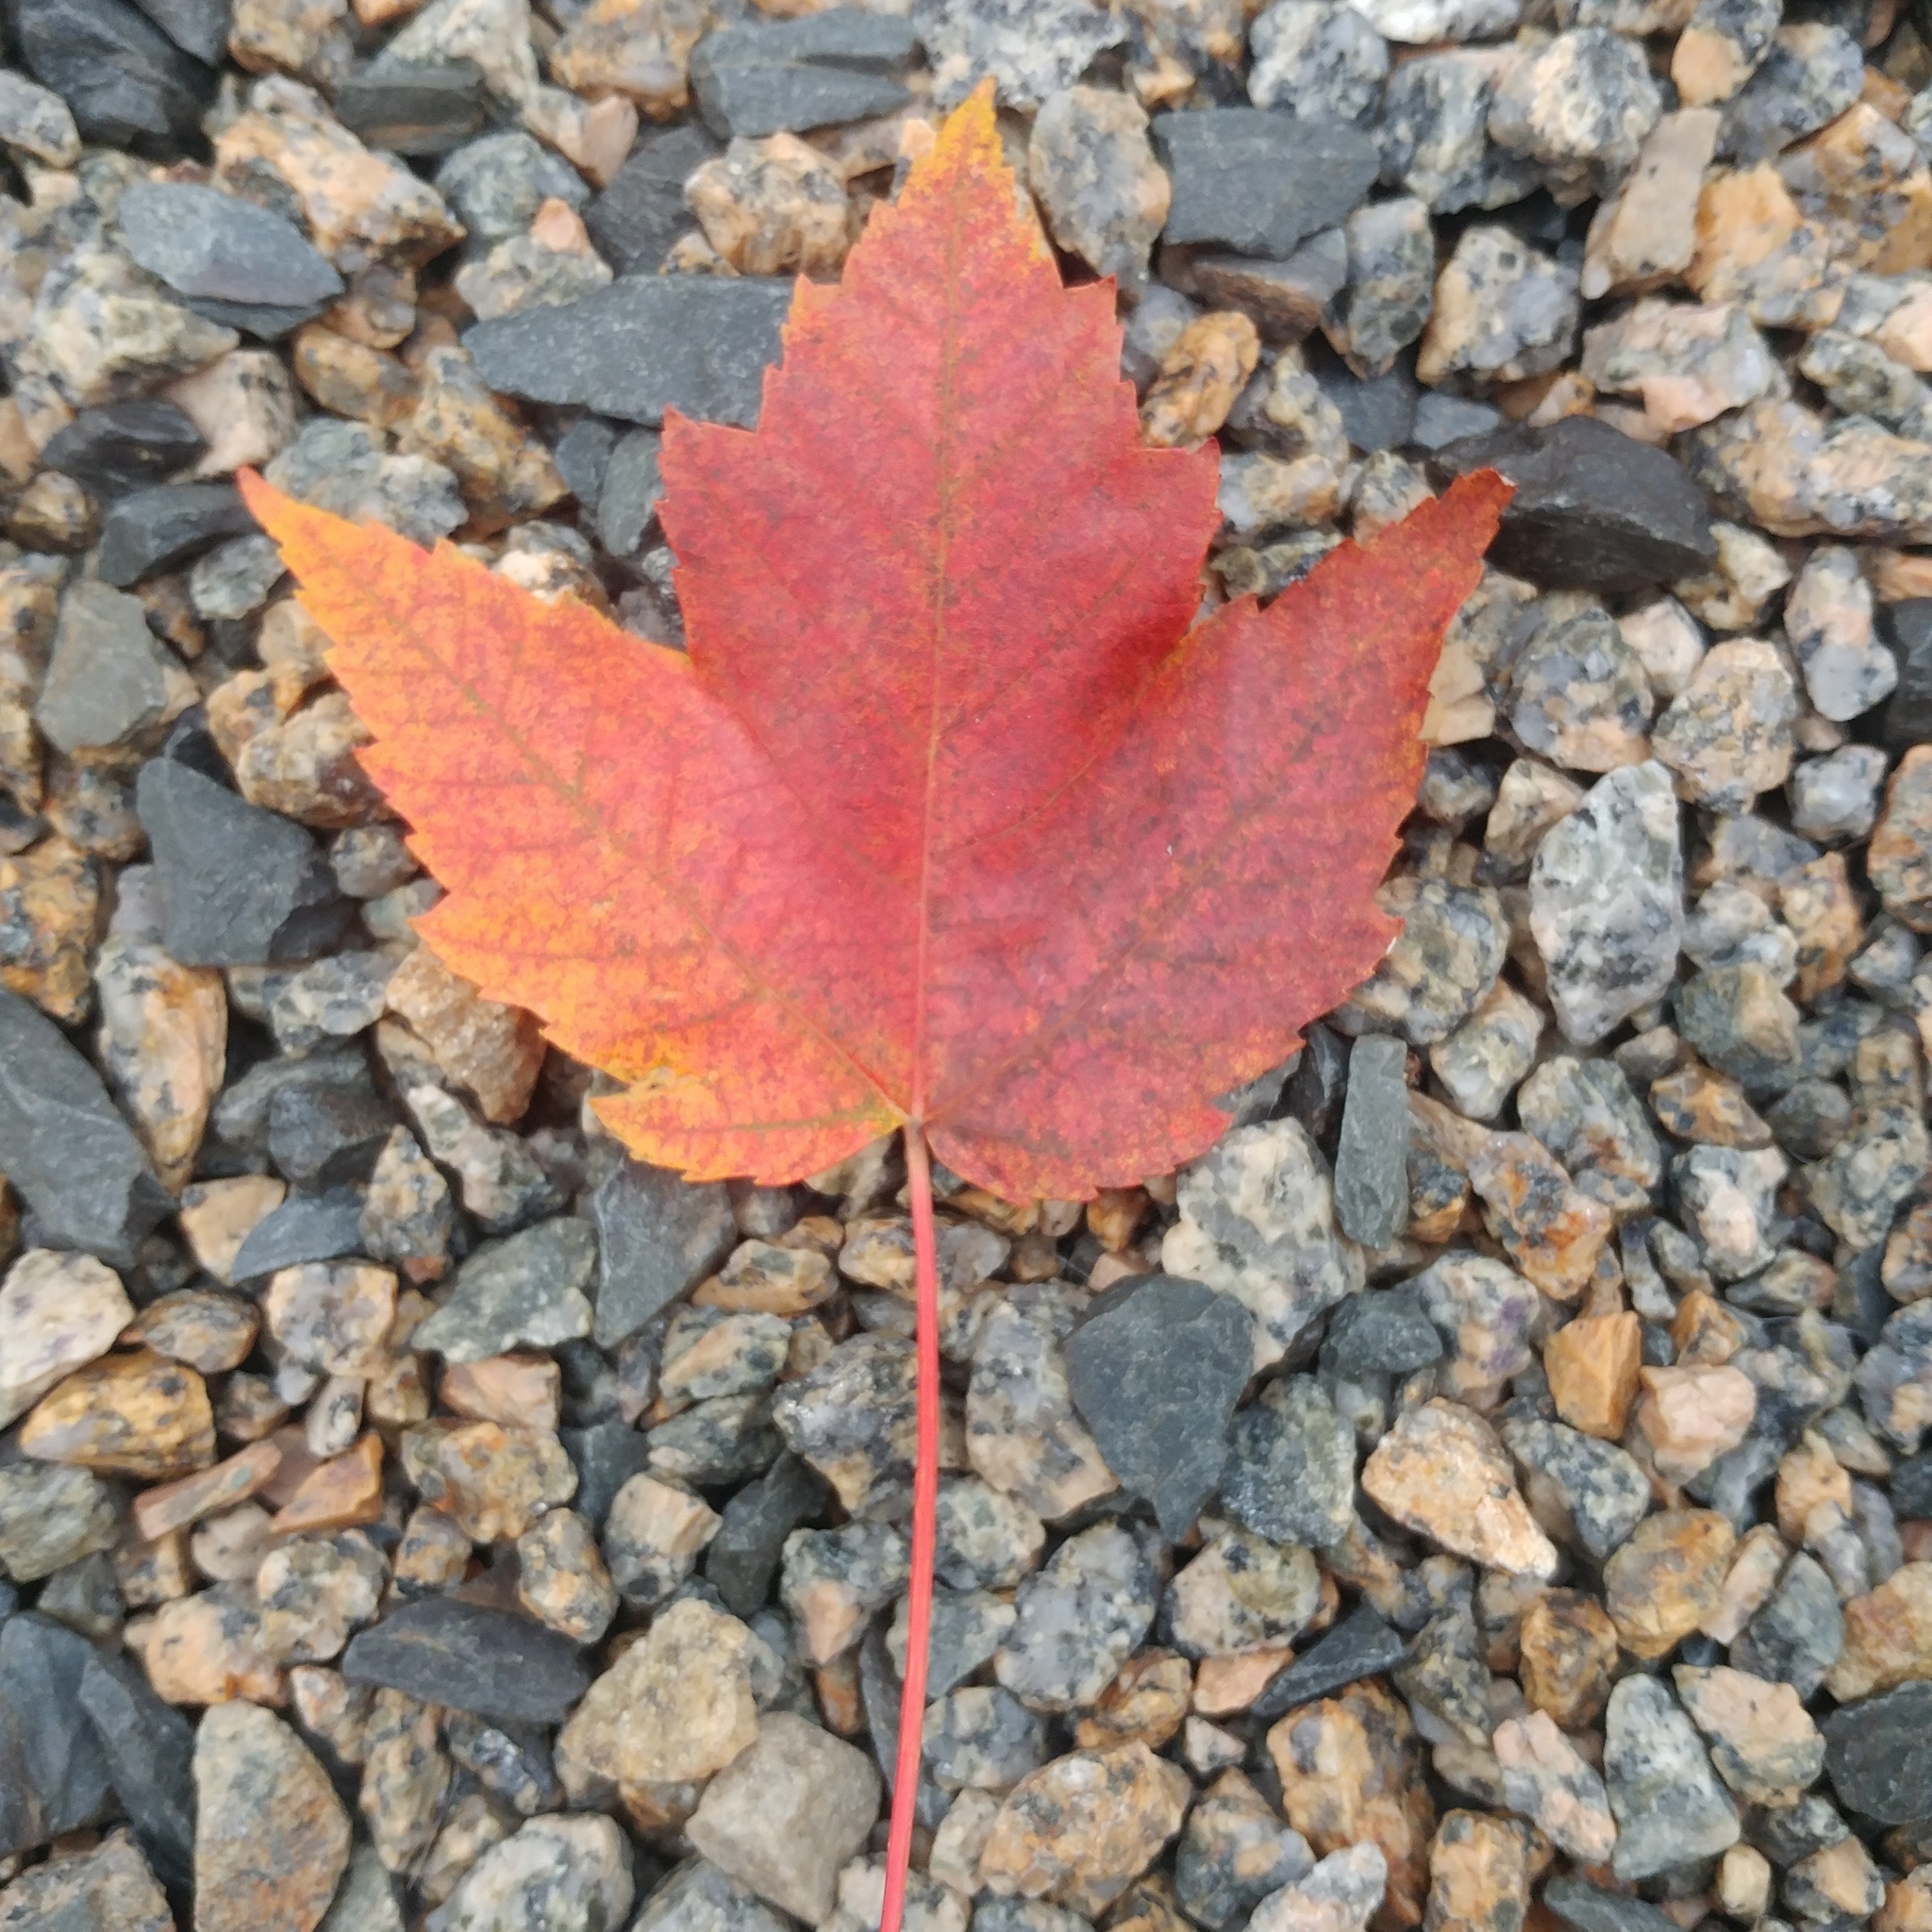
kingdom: Plantae
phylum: Tracheophyta
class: Magnoliopsida
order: Sapindales
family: Sapindaceae
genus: Acer
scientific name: Acer rubrum
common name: Red maple
